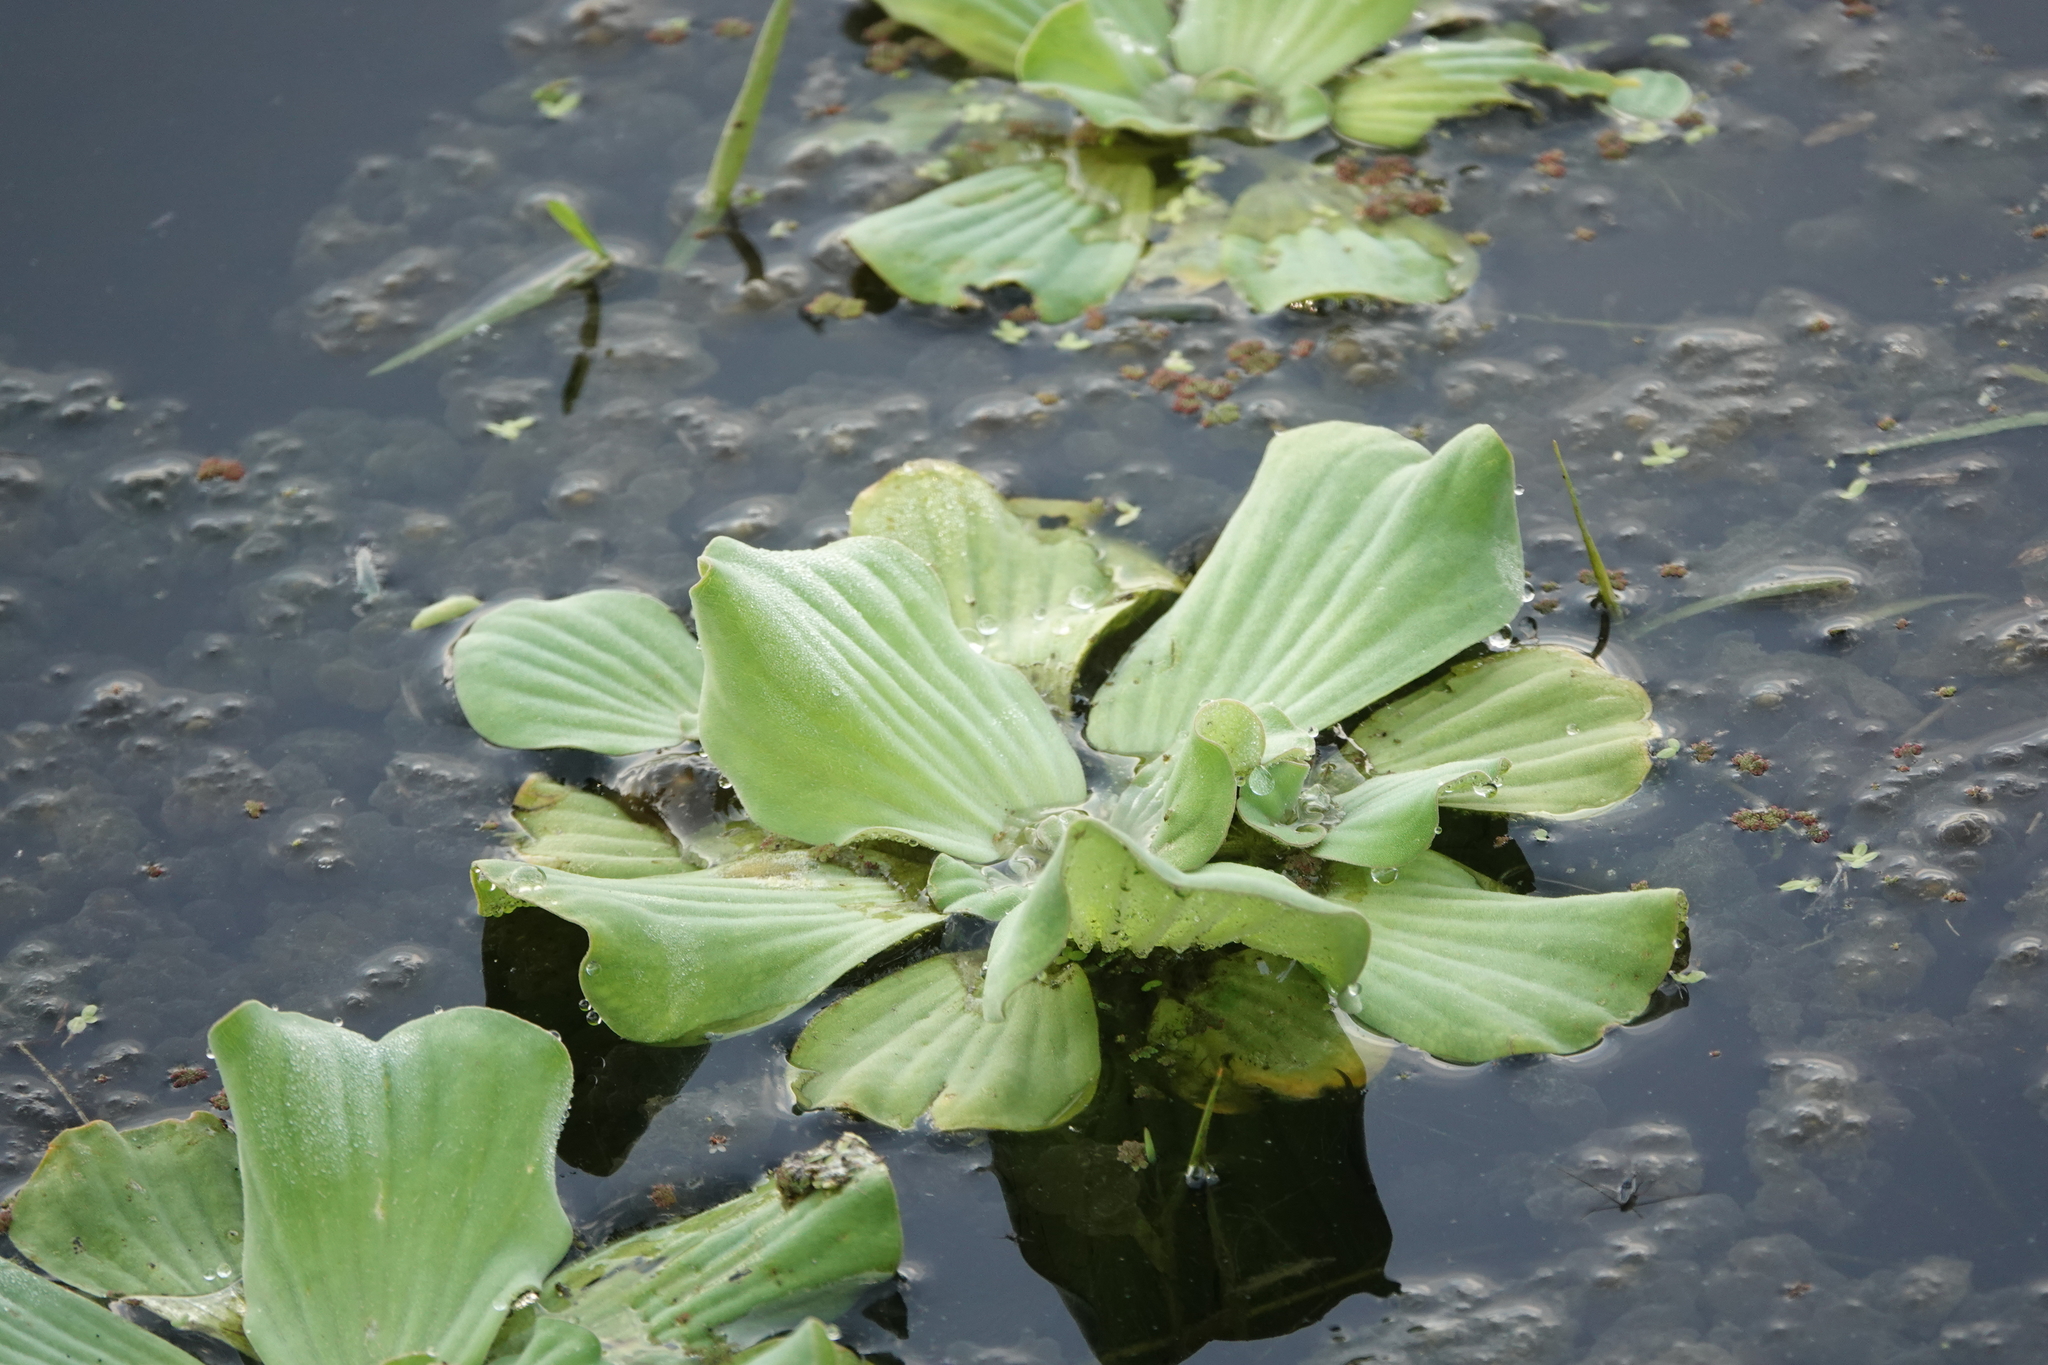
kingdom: Plantae
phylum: Tracheophyta
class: Liliopsida
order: Alismatales
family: Araceae
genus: Pistia
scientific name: Pistia stratiotes
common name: Water lettuce
